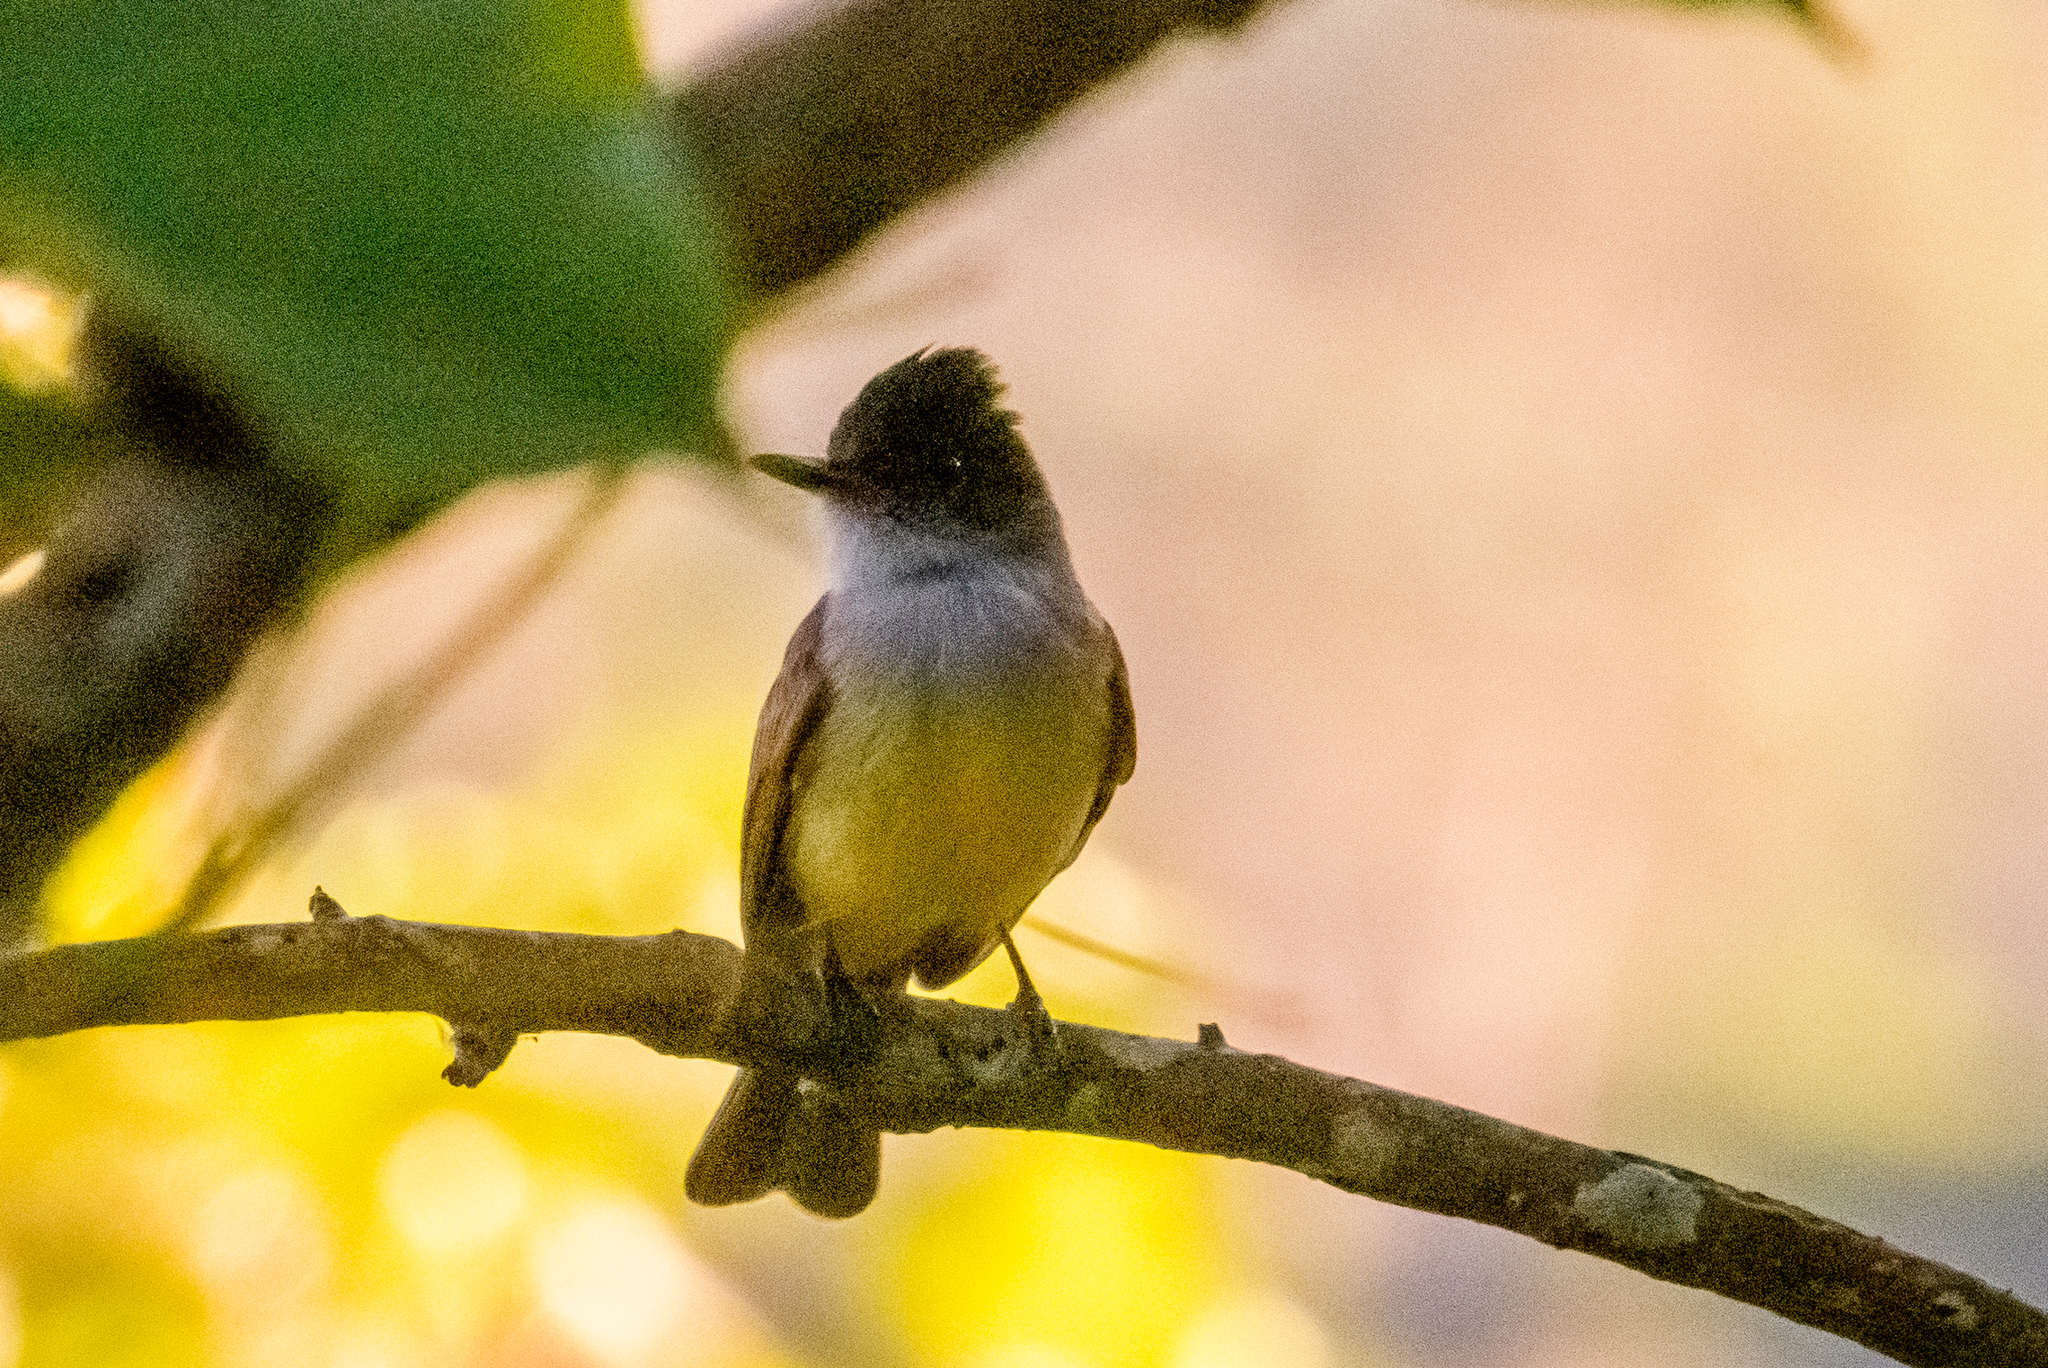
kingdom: Animalia
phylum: Chordata
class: Aves
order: Passeriformes
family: Tyrannidae
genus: Myiarchus
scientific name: Myiarchus tuberculifer
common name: Dusky-capped flycatcher
